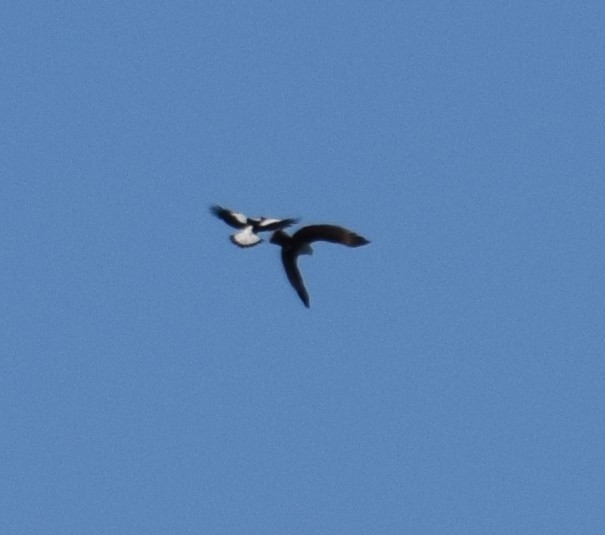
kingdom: Animalia
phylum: Chordata
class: Aves
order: Accipitriformes
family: Accipitridae
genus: Haliastur
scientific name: Haliastur indus
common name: Brahminy kite
